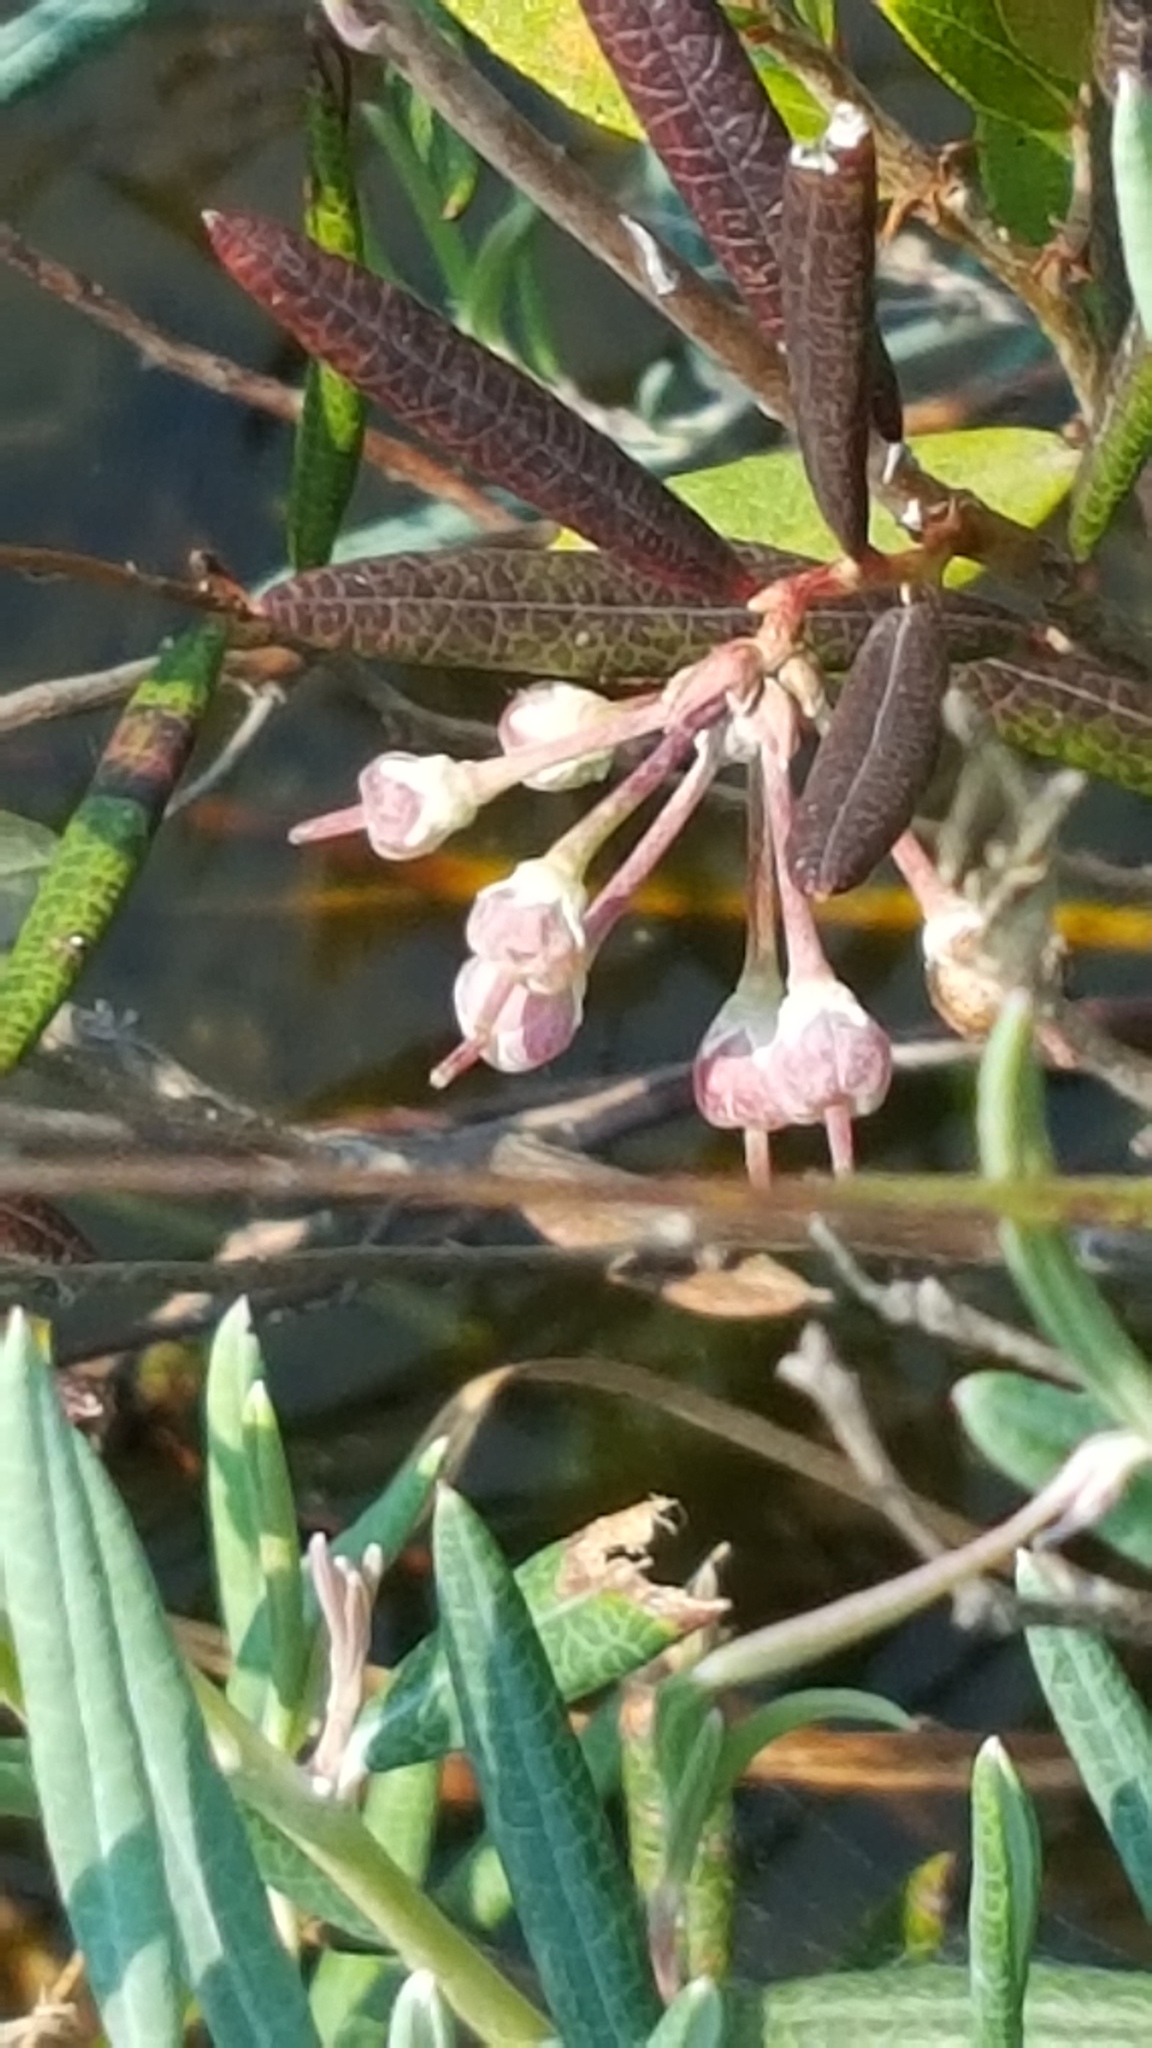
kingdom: Plantae
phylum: Tracheophyta
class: Magnoliopsida
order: Ericales
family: Ericaceae
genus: Andromeda
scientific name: Andromeda polifolia
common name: Bog-rosemary
